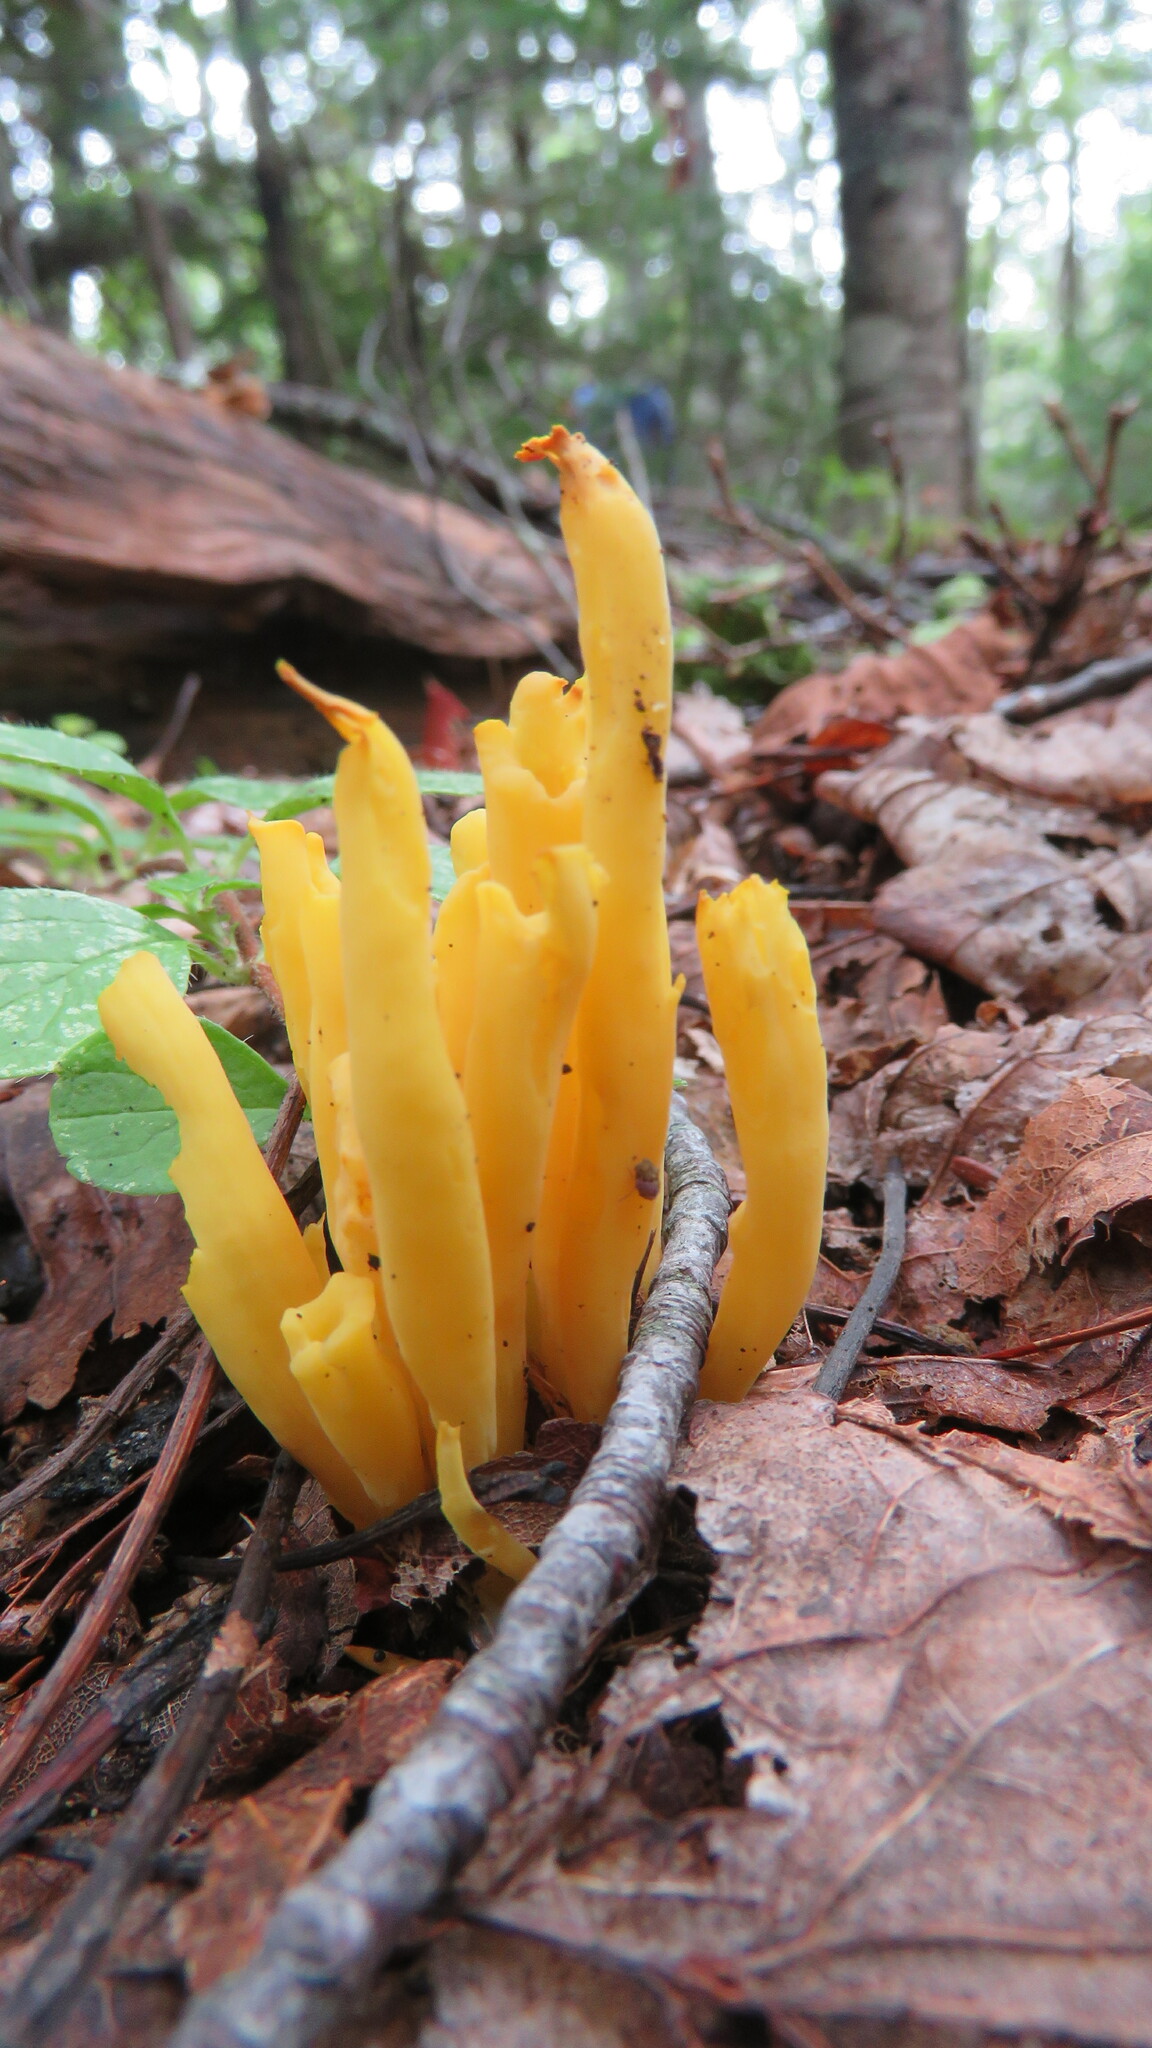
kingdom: Fungi
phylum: Basidiomycota
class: Agaricomycetes
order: Agaricales
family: Clavariaceae
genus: Clavulinopsis
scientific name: Clavulinopsis fusiformis
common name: Golden spindles
